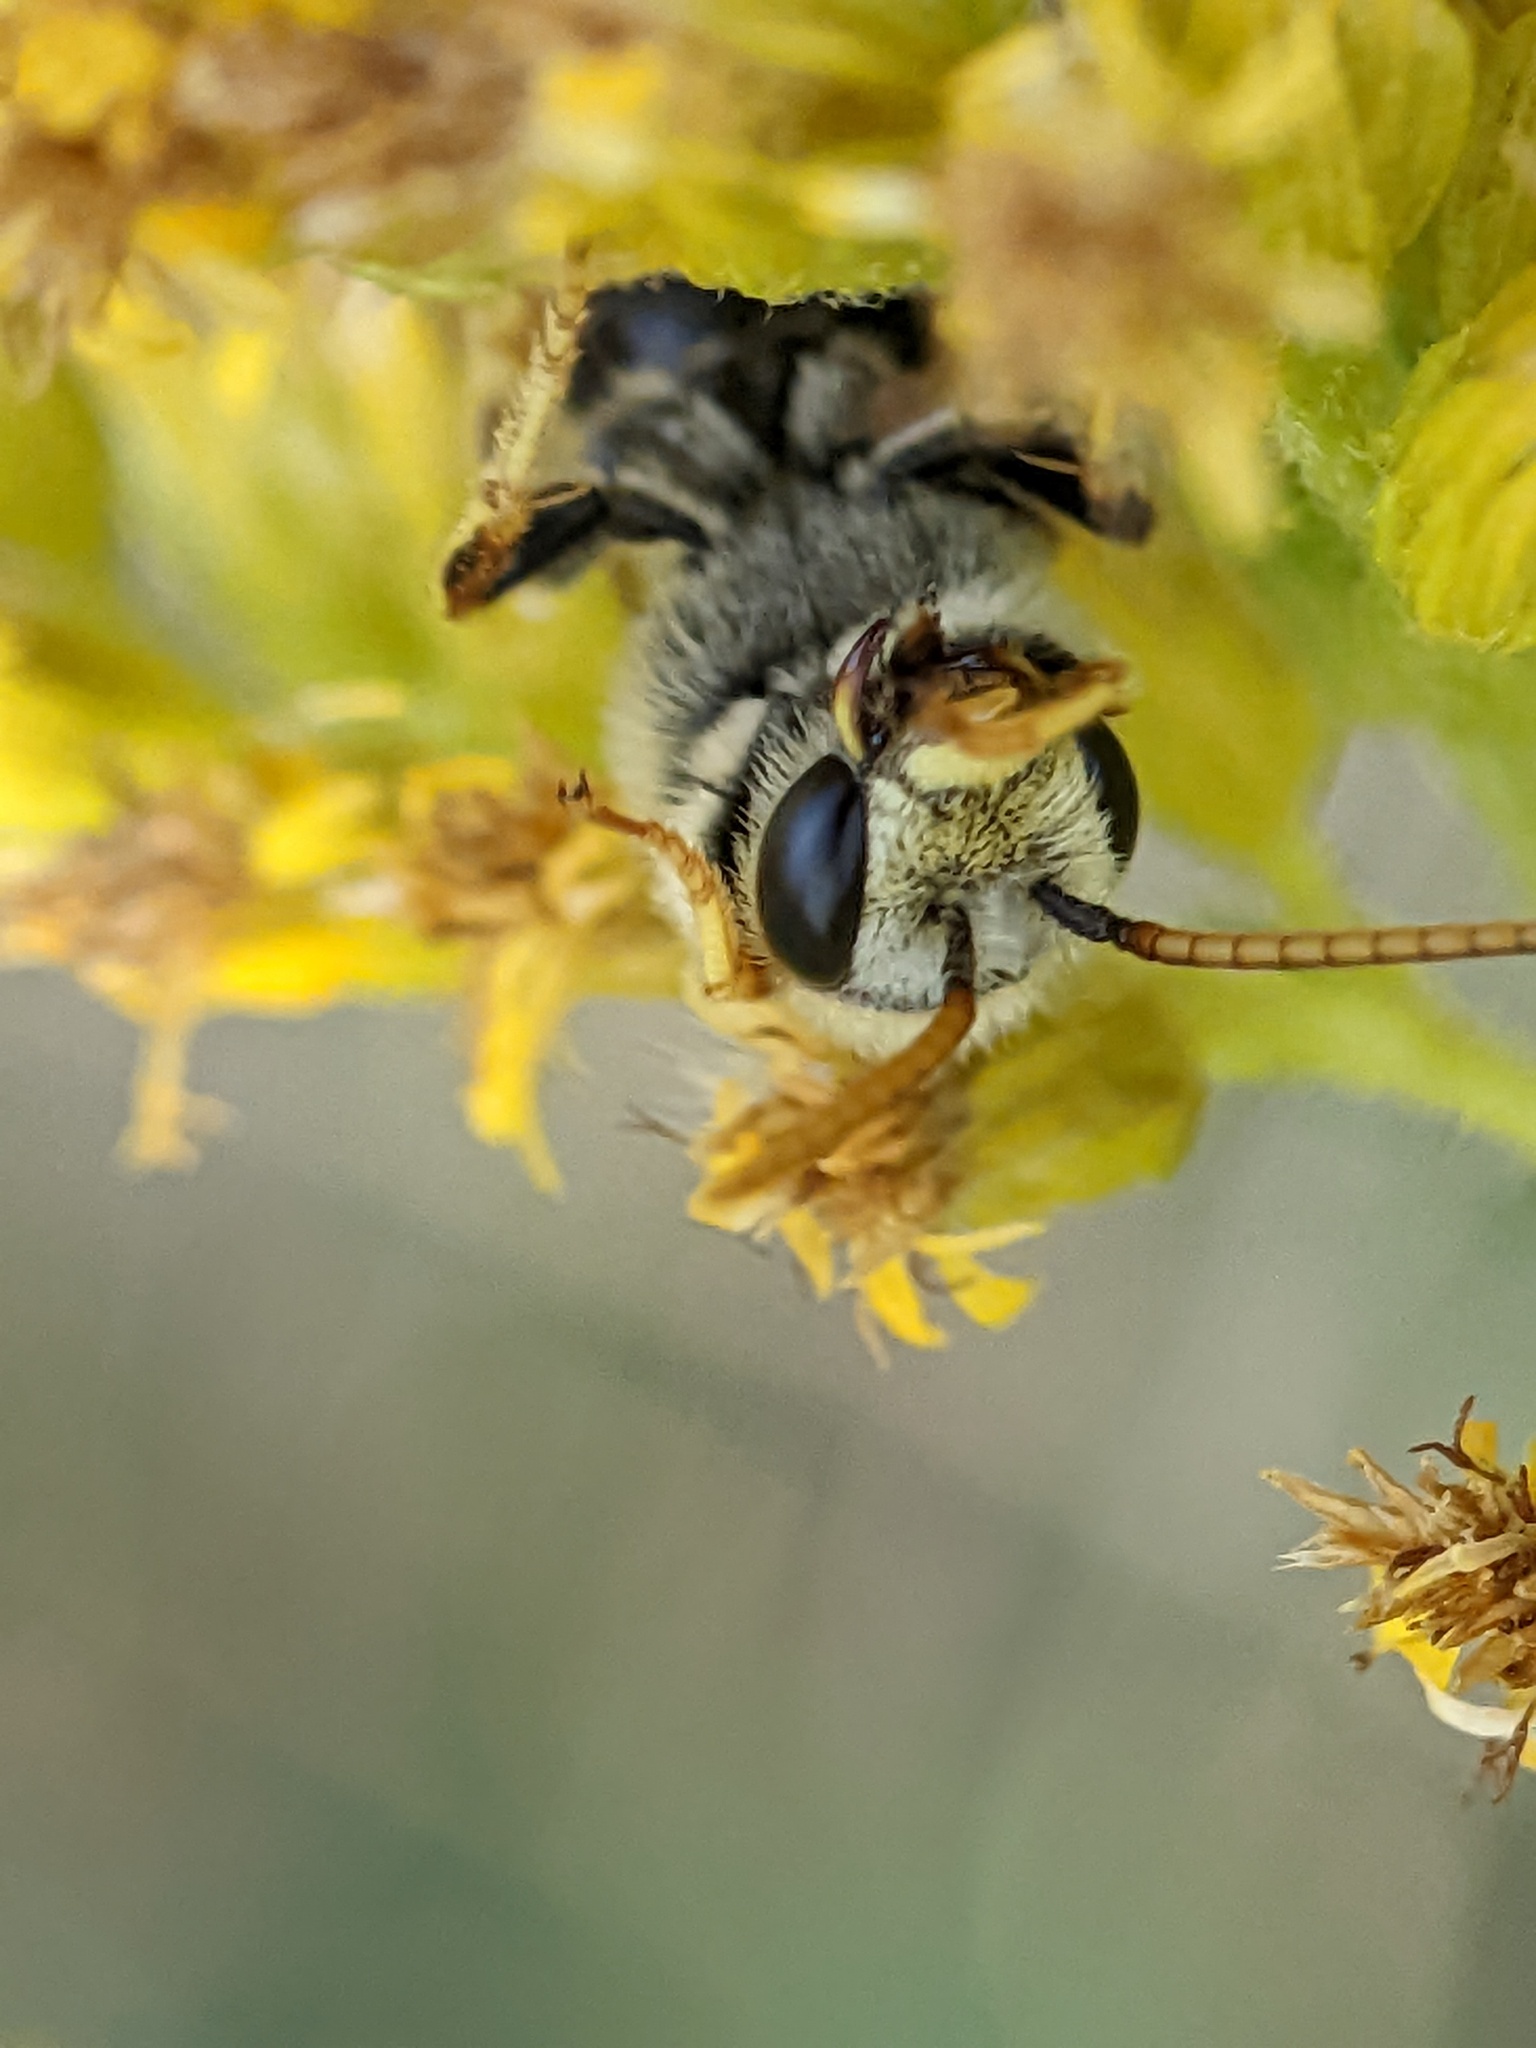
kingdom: Animalia
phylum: Arthropoda
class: Insecta
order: Hymenoptera
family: Halictidae
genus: Halictus
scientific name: Halictus ligatus
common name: Ligated furrow bee
